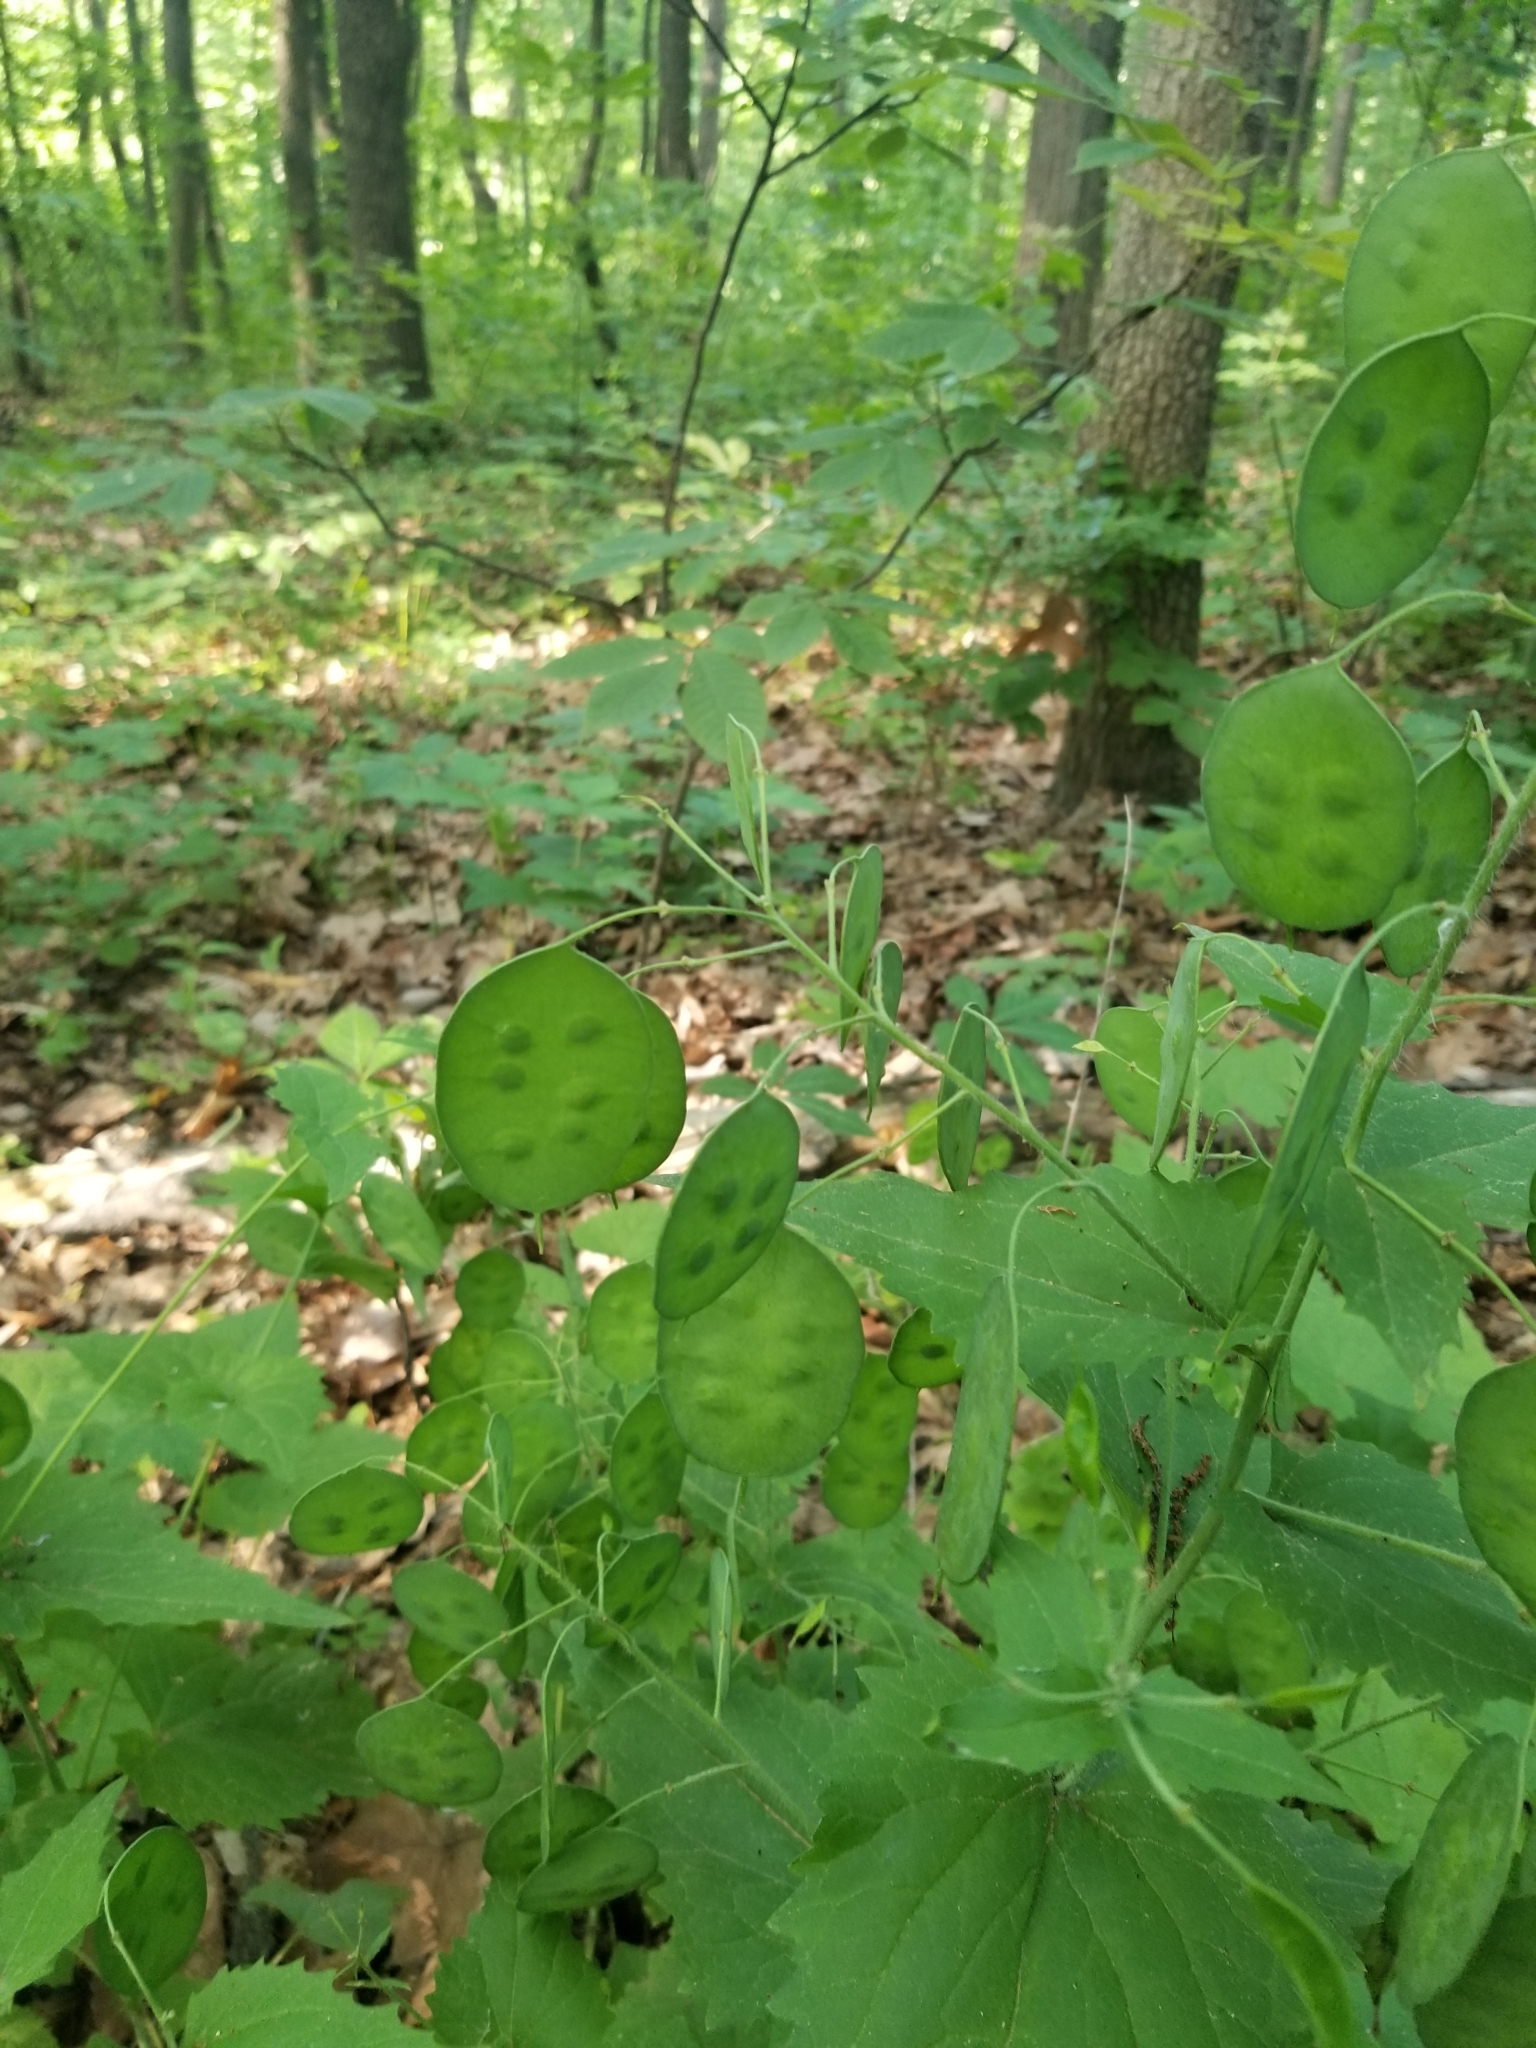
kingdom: Plantae
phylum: Tracheophyta
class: Magnoliopsida
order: Brassicales
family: Brassicaceae
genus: Lunaria
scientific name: Lunaria annua
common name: Honesty
